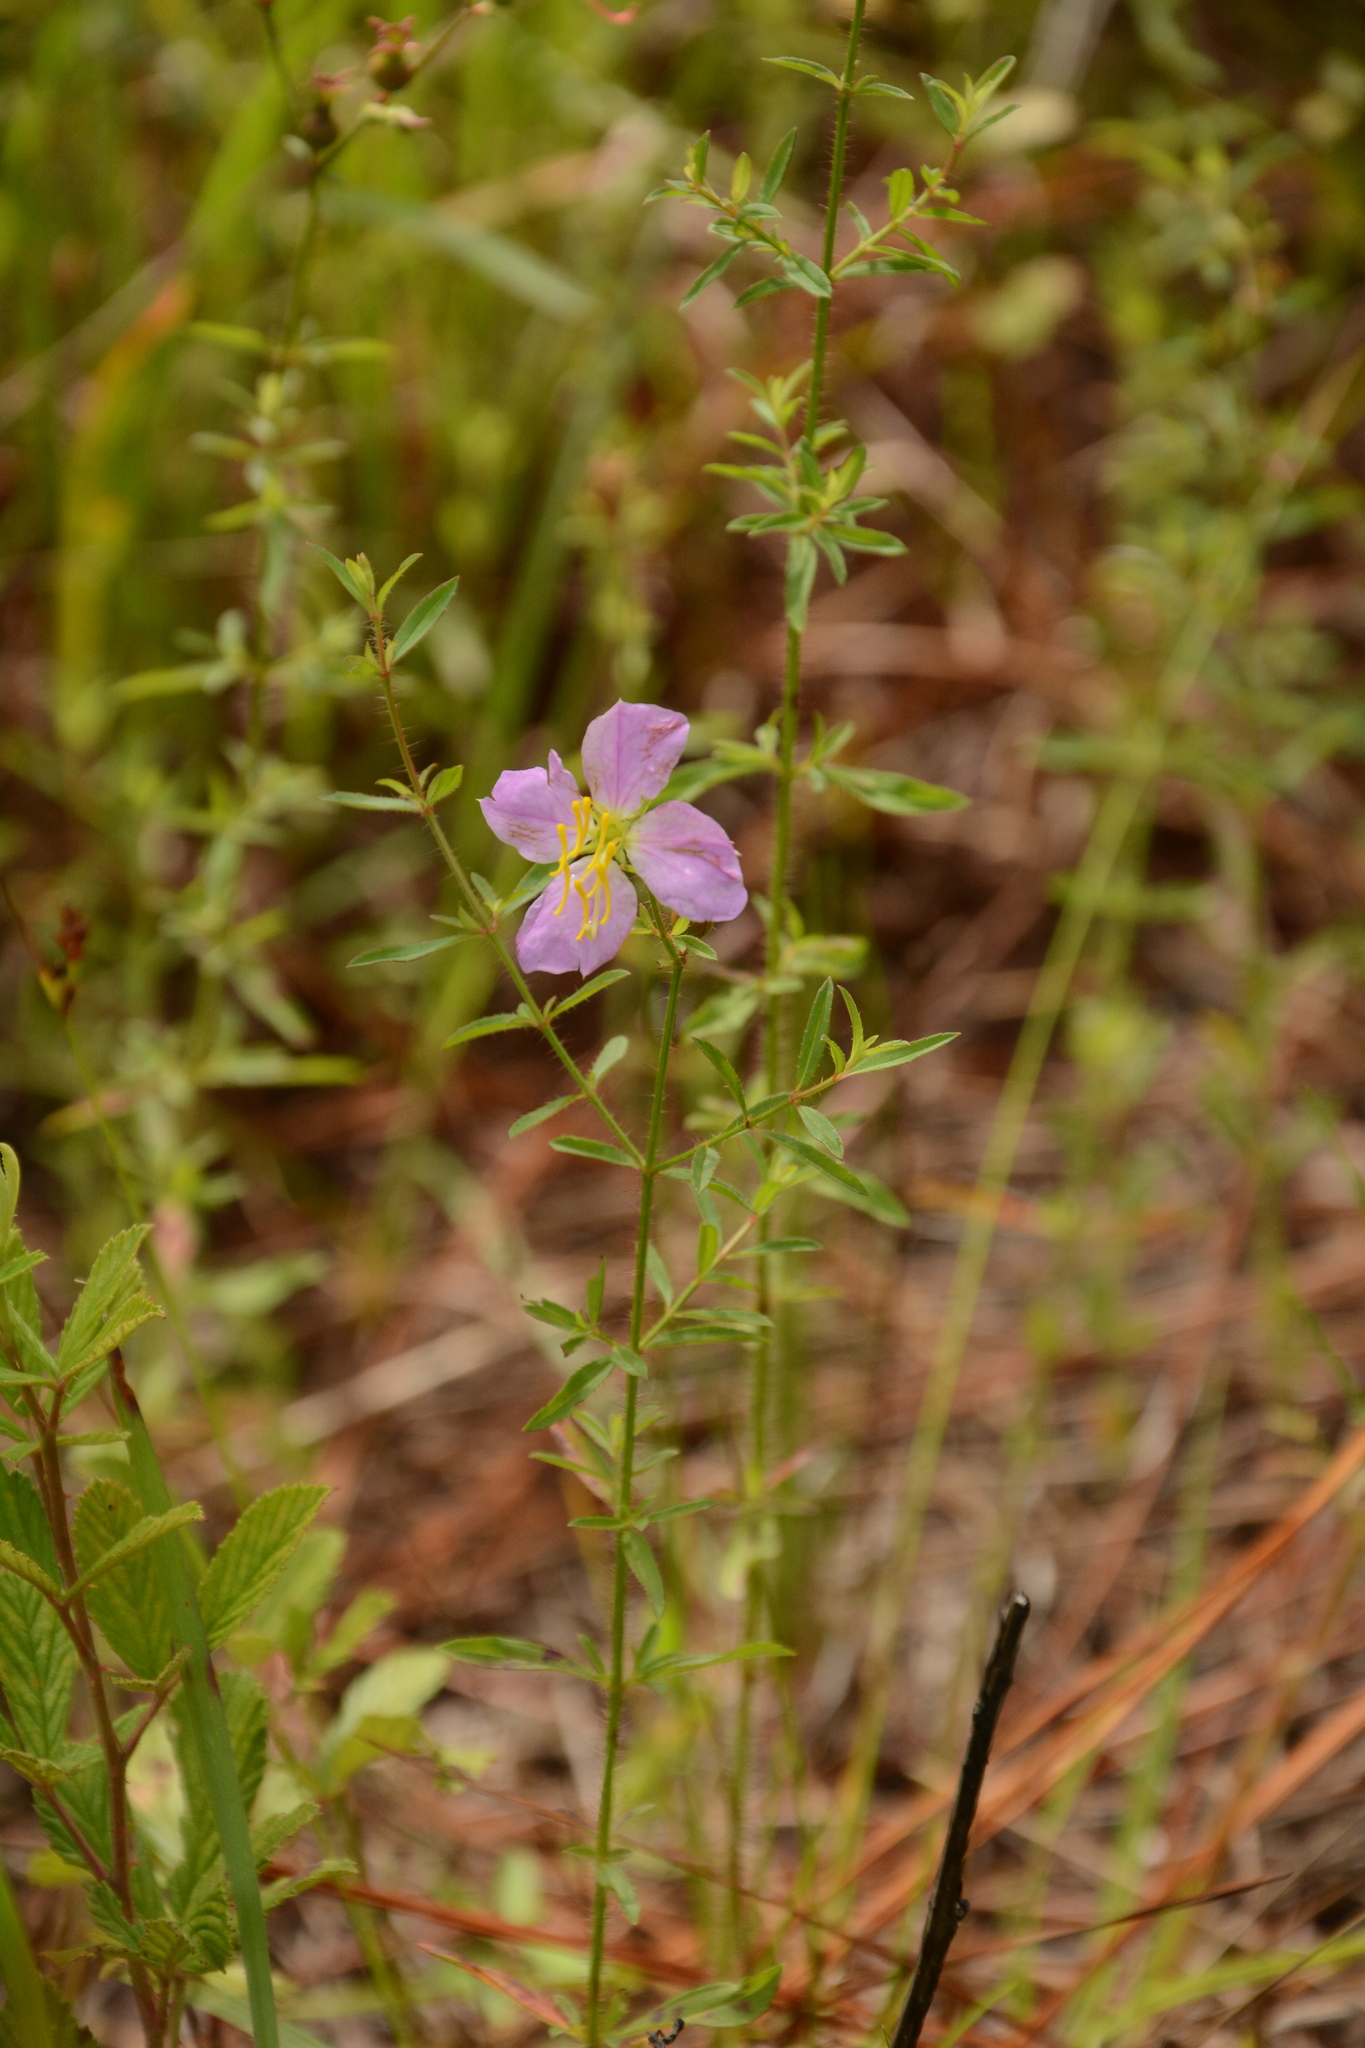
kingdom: Plantae
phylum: Tracheophyta
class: Magnoliopsida
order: Myrtales
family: Melastomataceae
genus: Rhexia
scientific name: Rhexia mariana
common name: Dull meadow-pitcher
